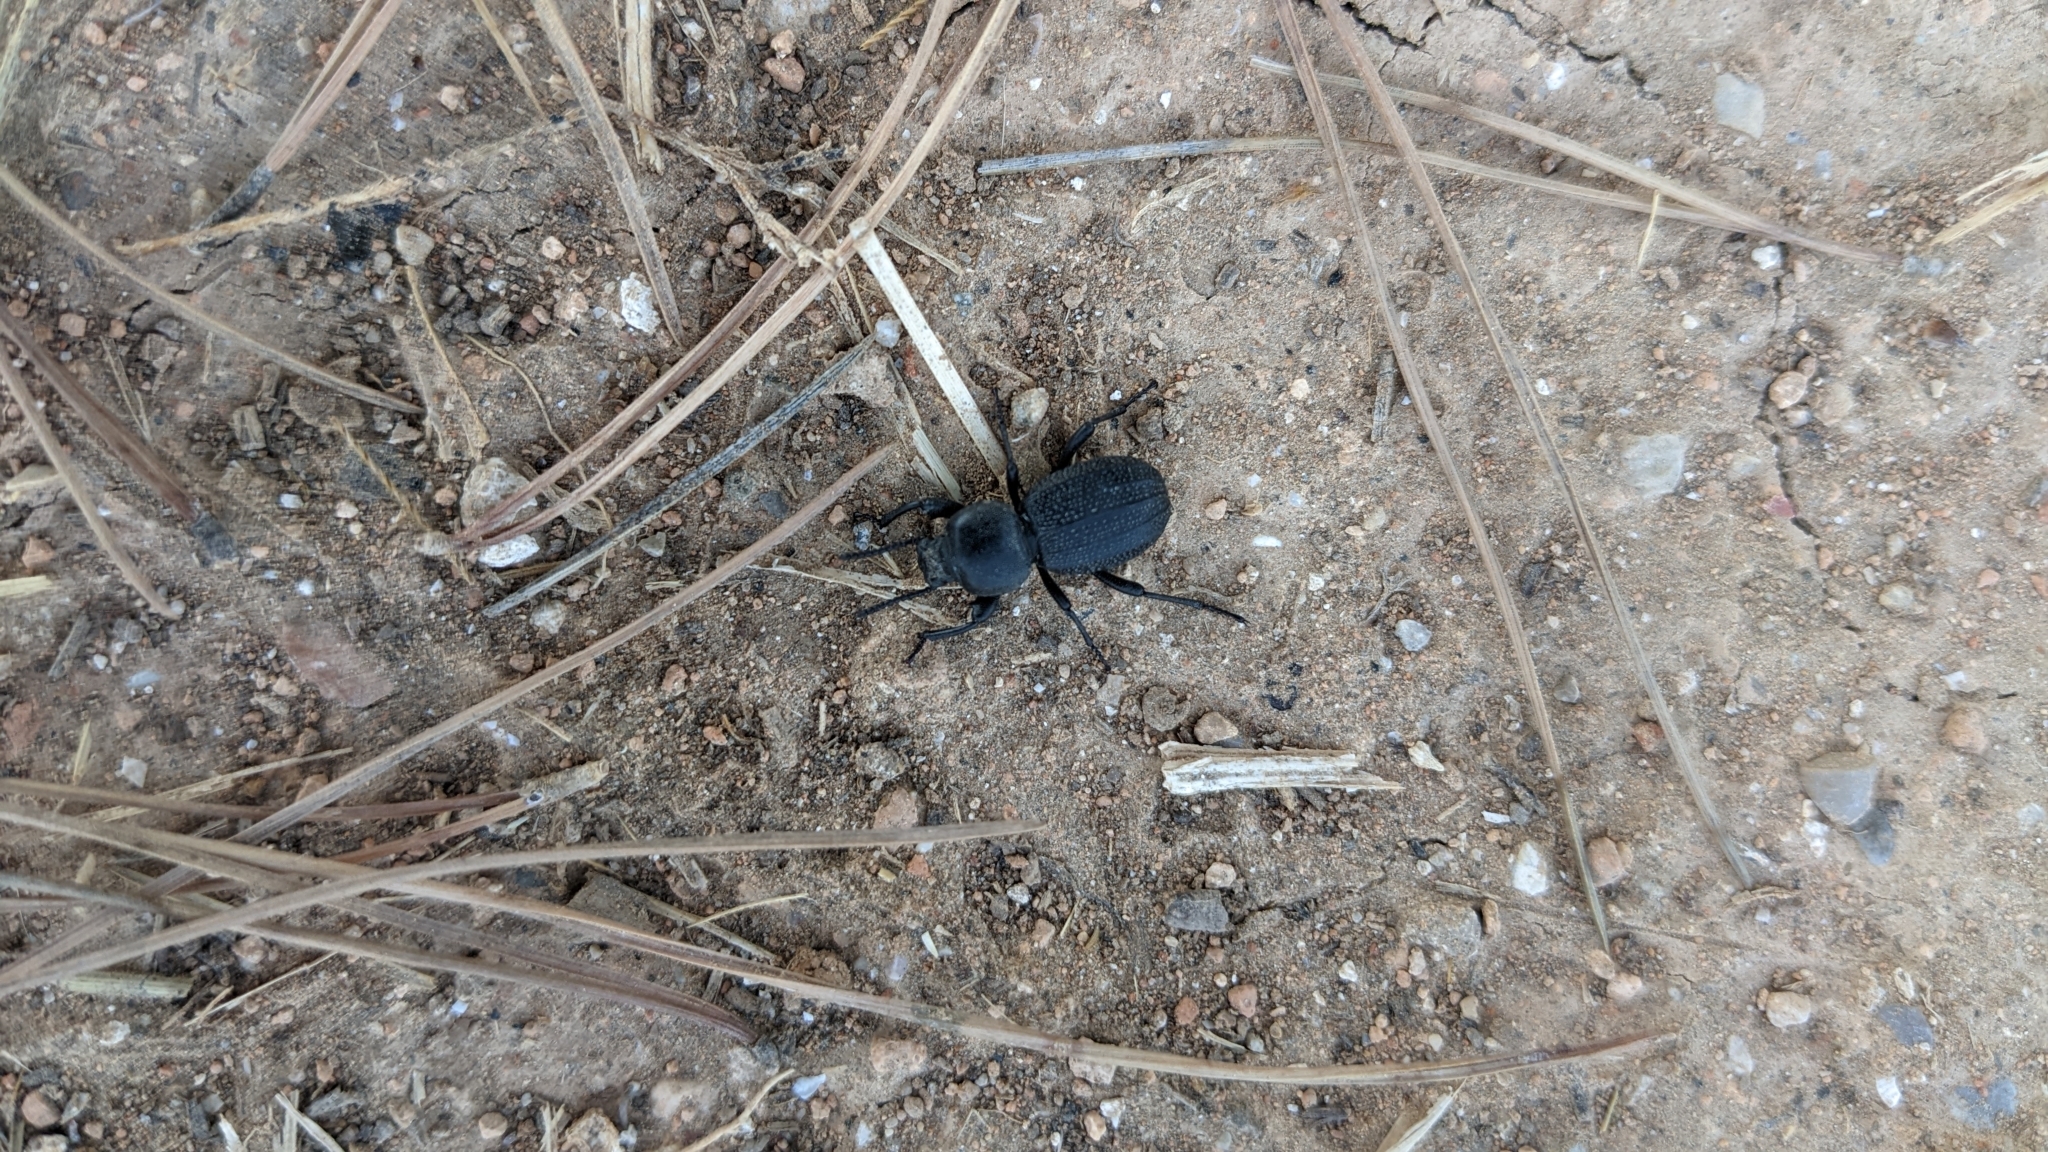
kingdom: Animalia
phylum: Arthropoda
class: Insecta
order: Coleoptera
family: Tenebrionidae
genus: Scaurus
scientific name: Scaurus uncinus
